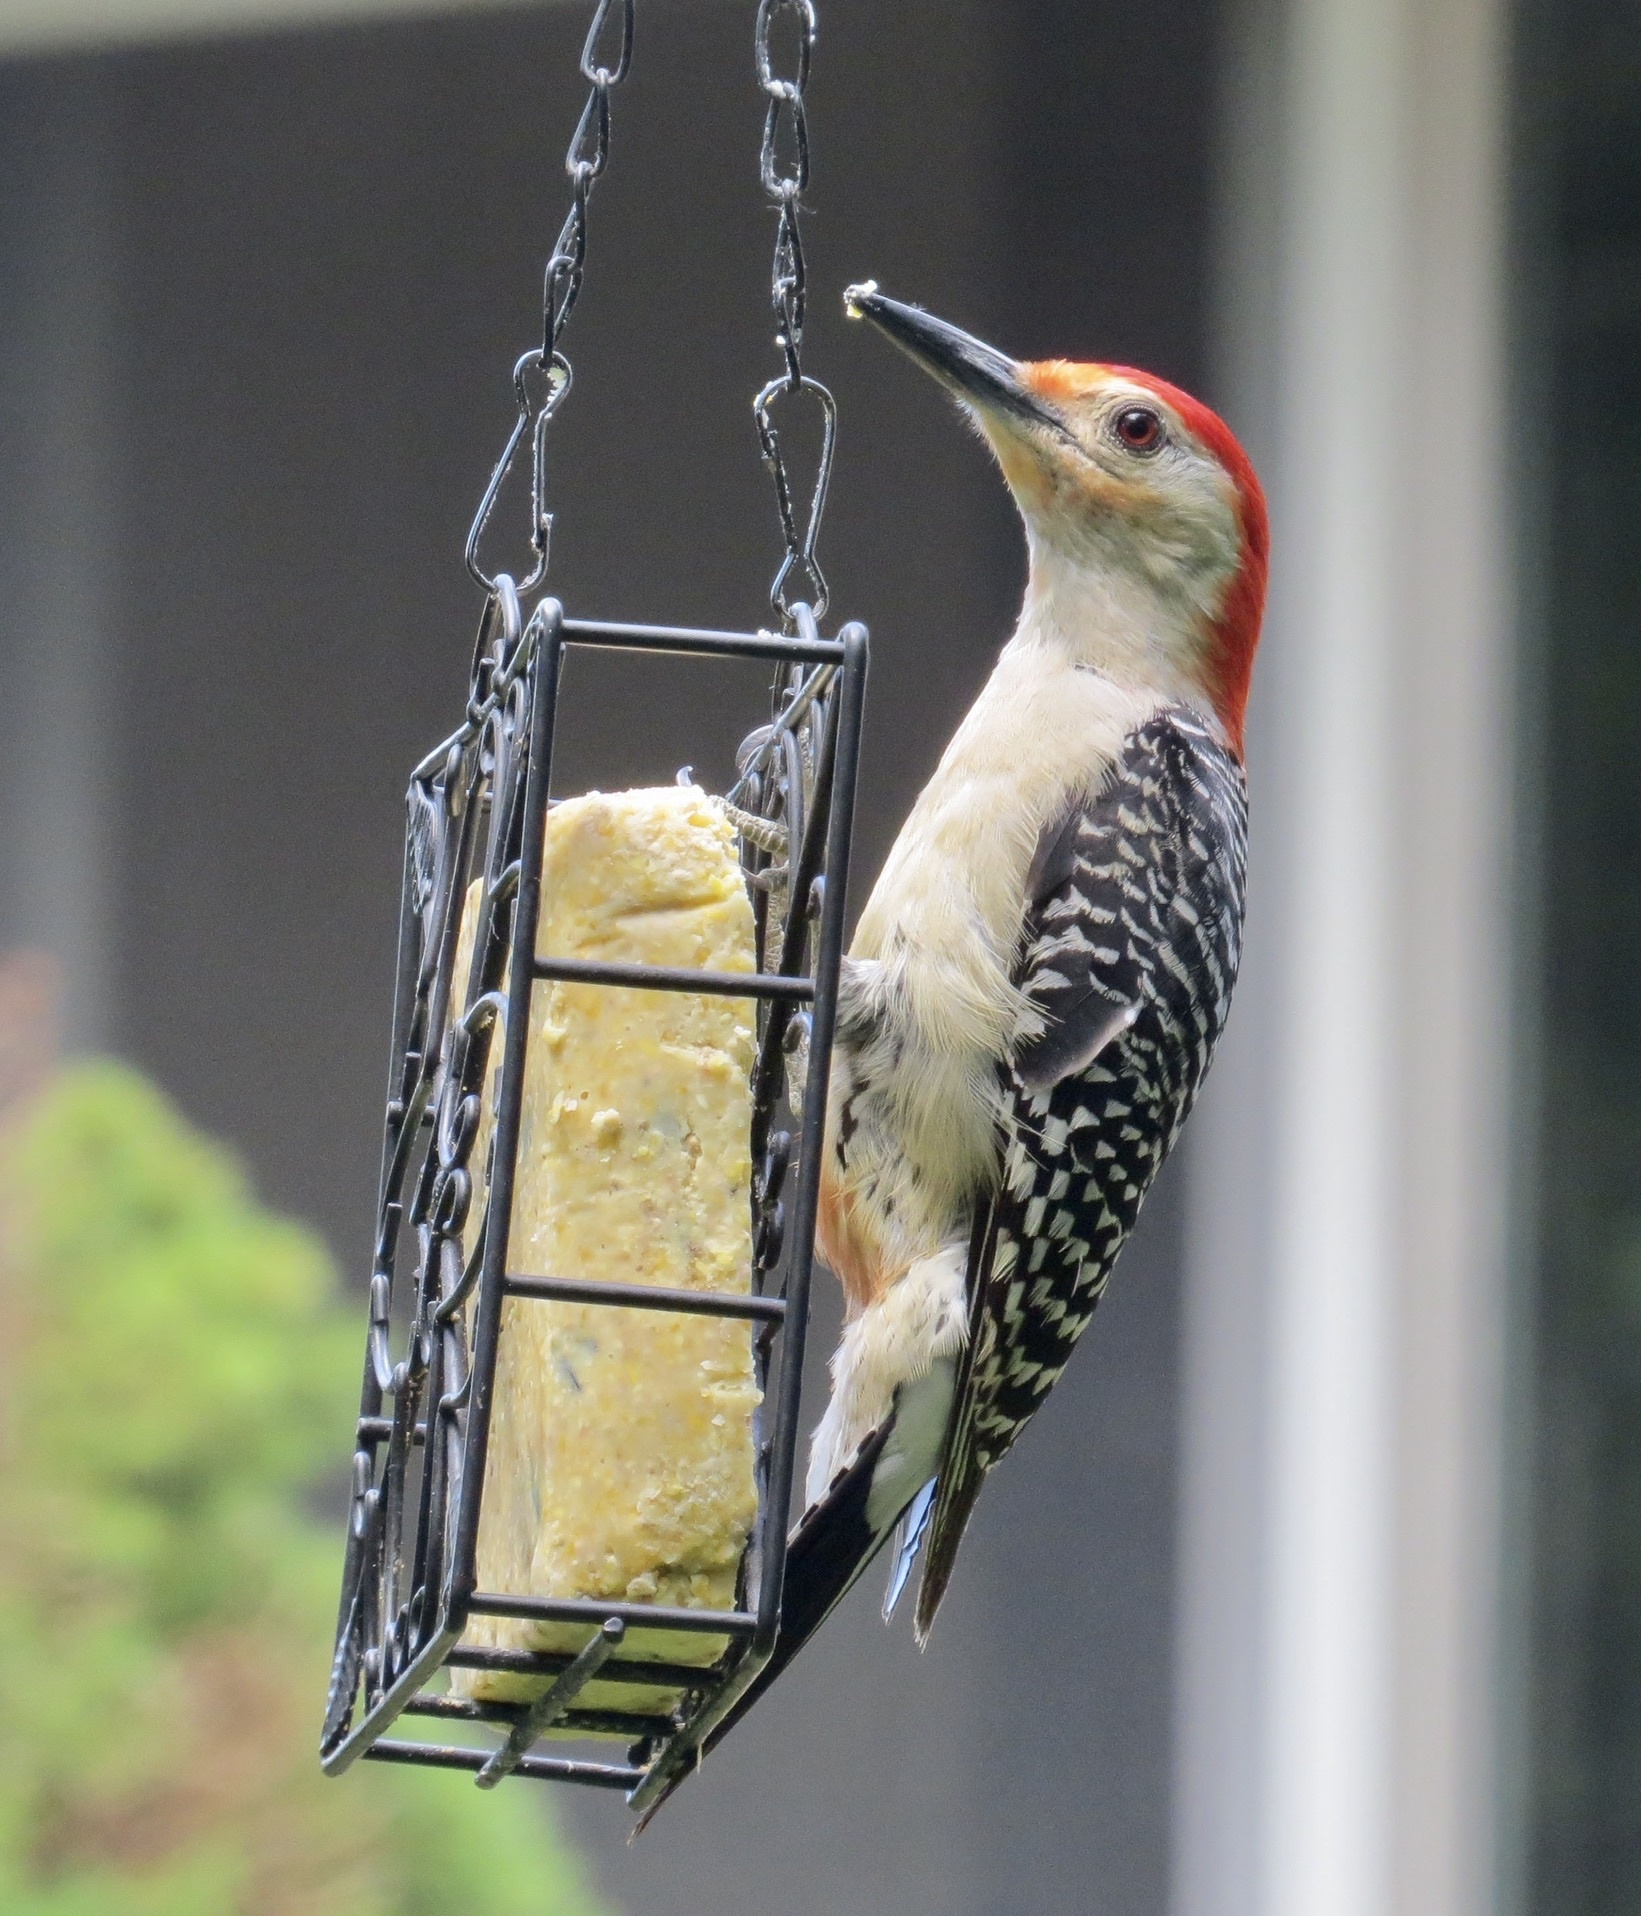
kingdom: Animalia
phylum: Chordata
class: Aves
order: Piciformes
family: Picidae
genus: Melanerpes
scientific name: Melanerpes carolinus
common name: Red-bellied woodpecker
